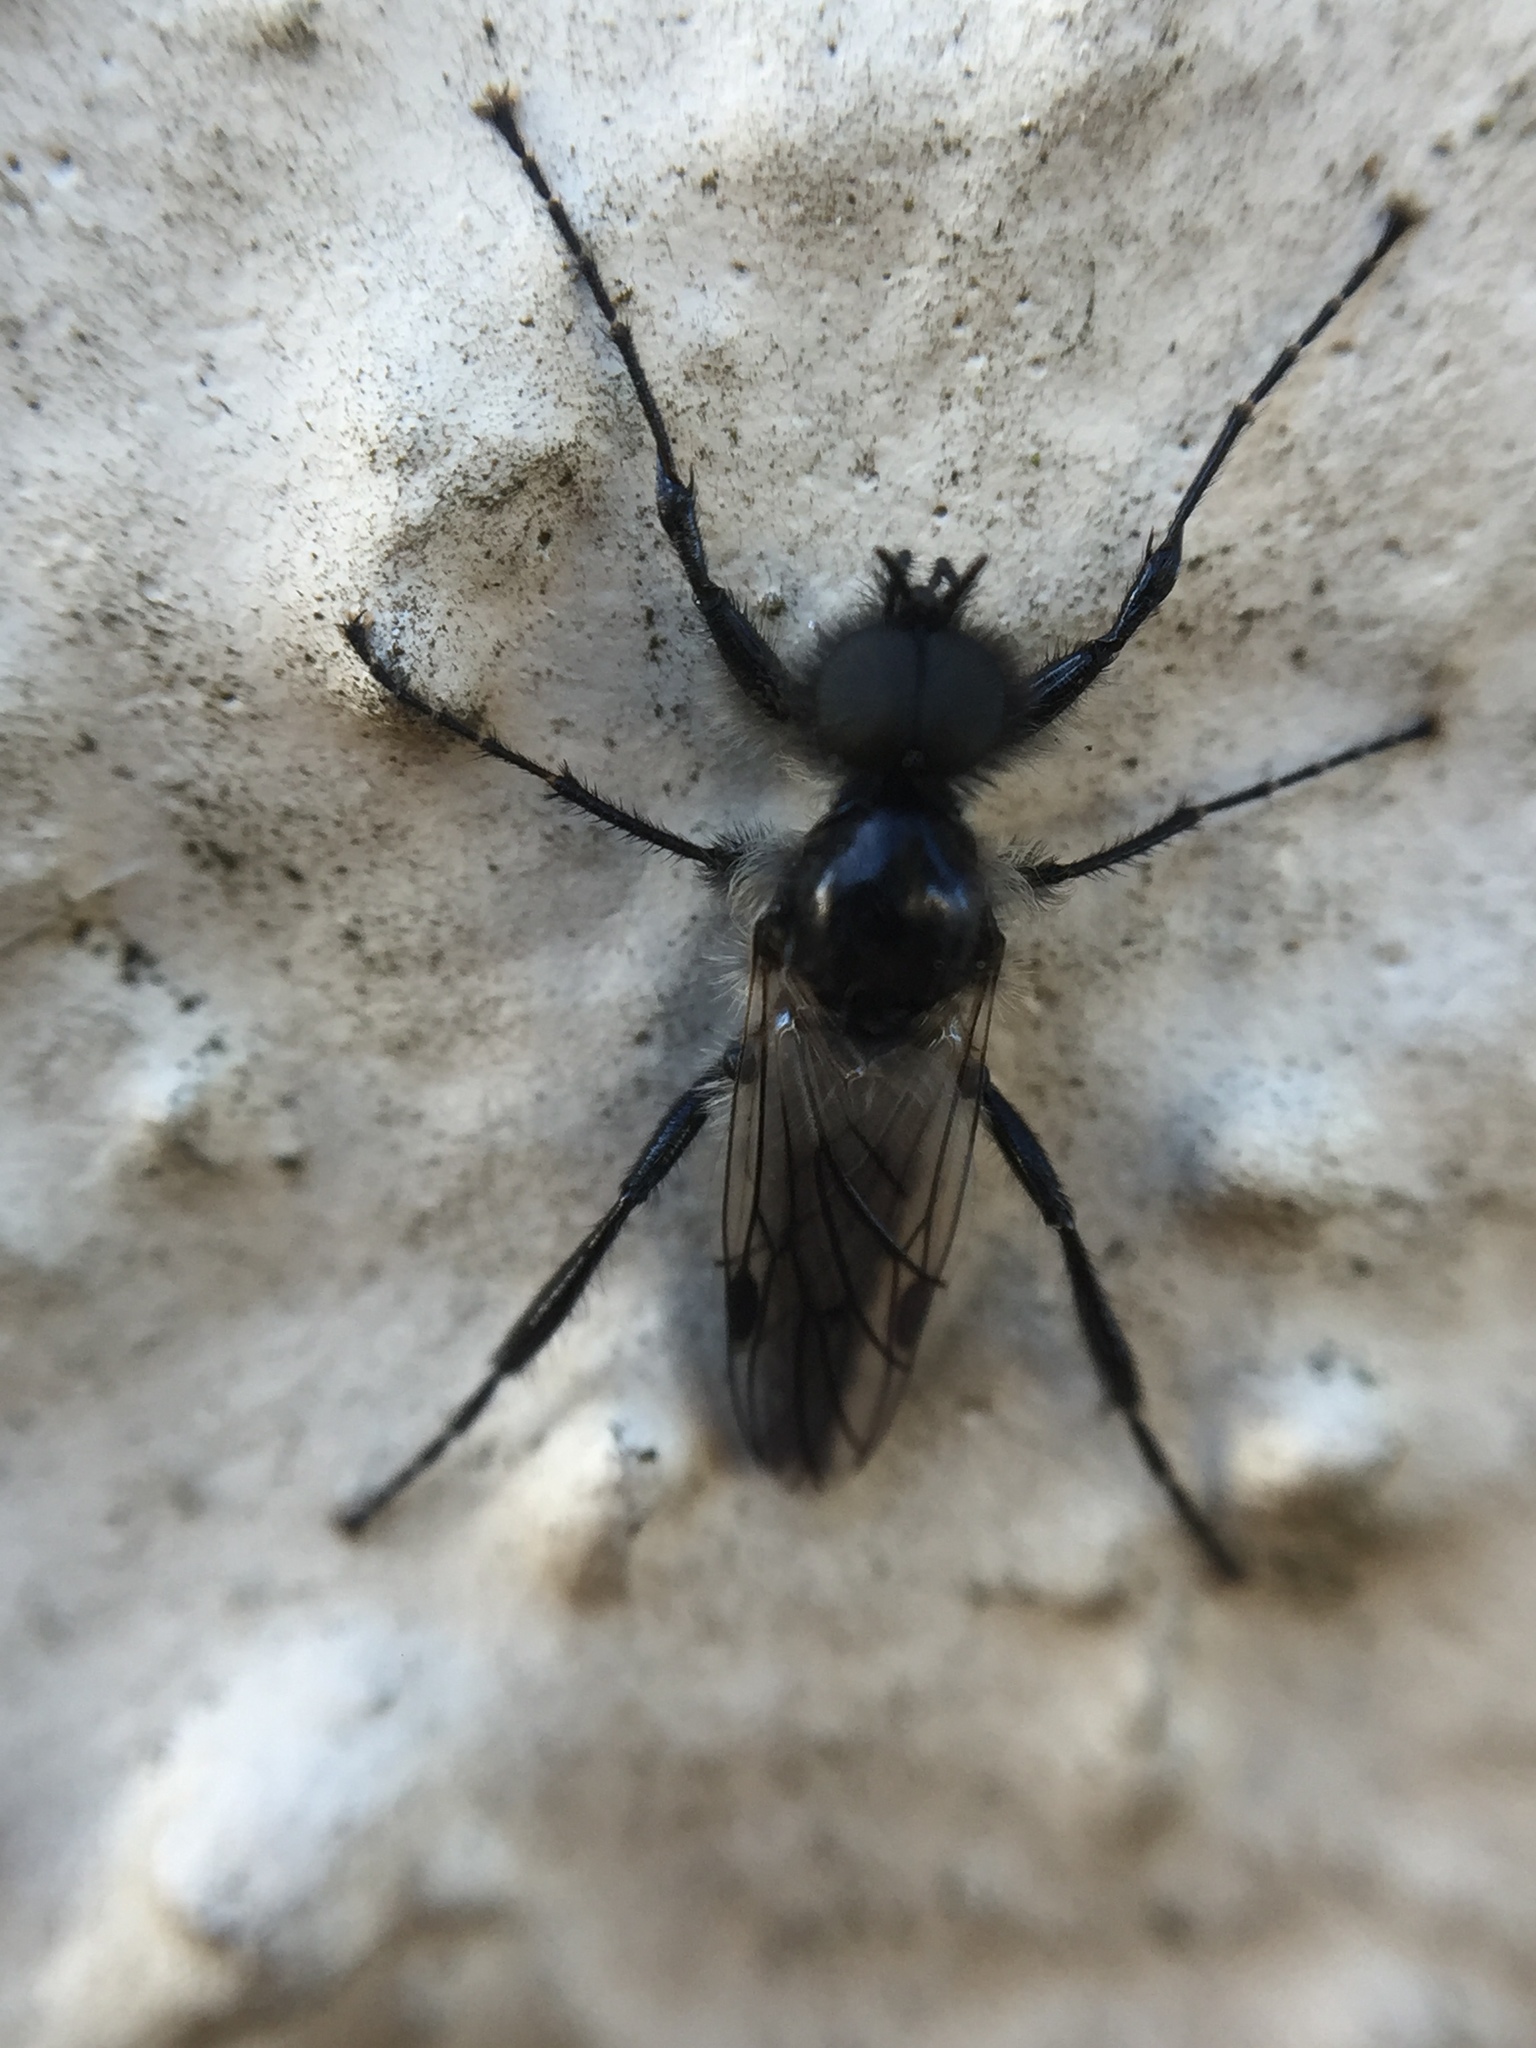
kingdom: Animalia
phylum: Arthropoda
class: Insecta
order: Diptera
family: Bibionidae
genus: Bibio
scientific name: Bibio albipennis
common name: White-winged march fly
